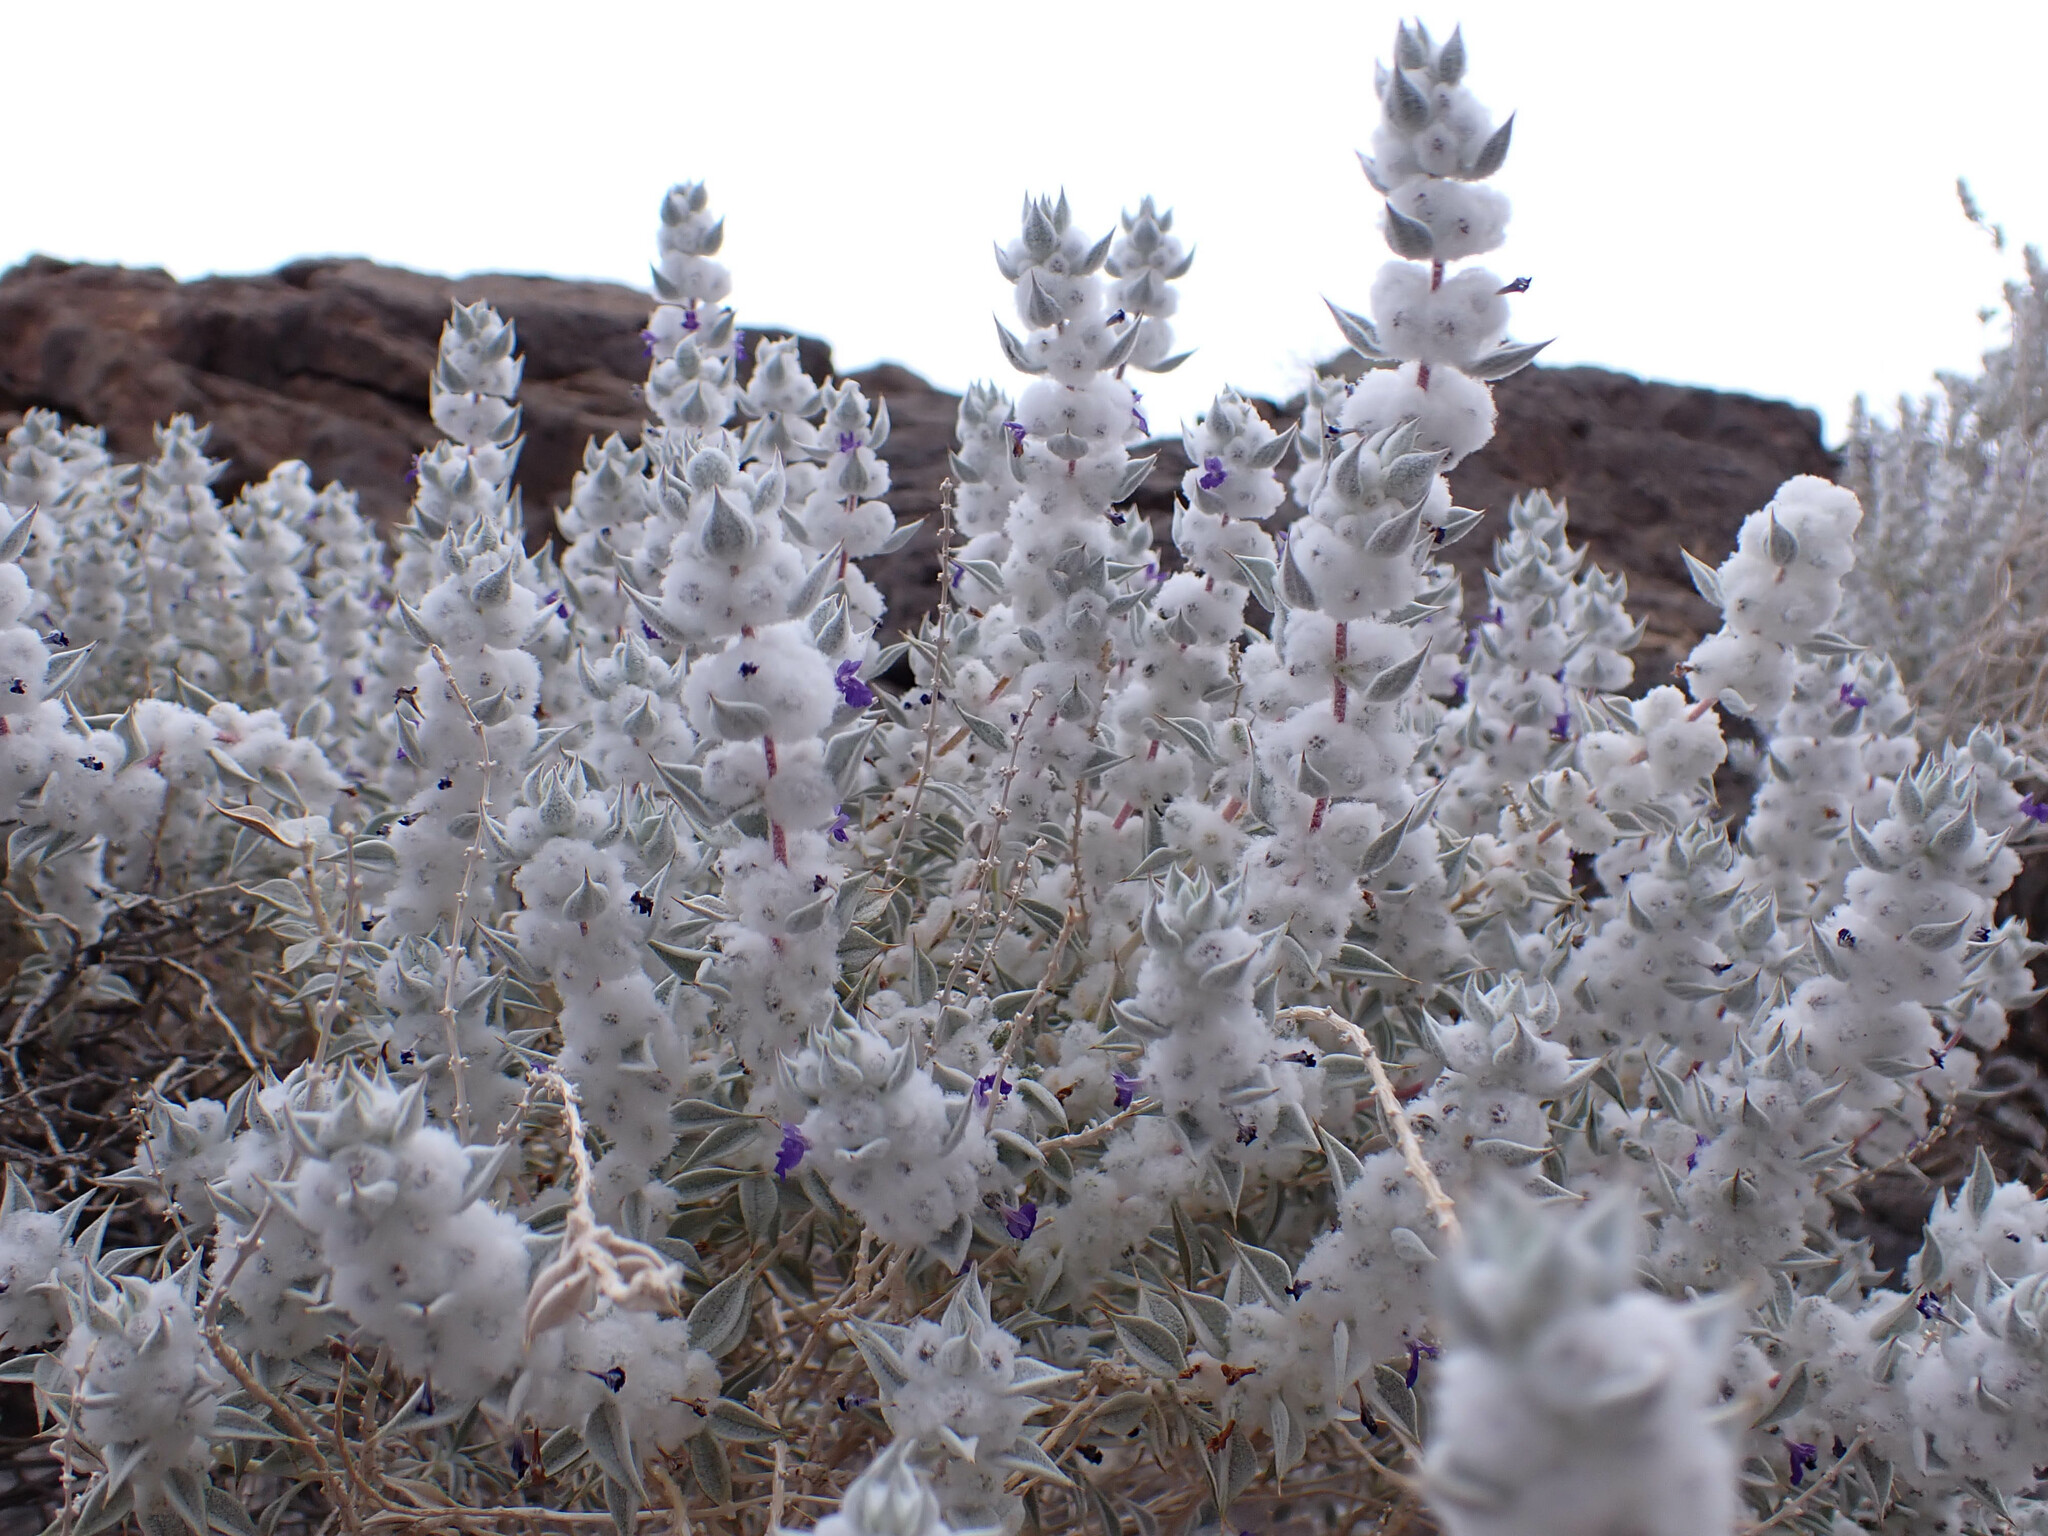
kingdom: Plantae
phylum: Tracheophyta
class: Magnoliopsida
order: Lamiales
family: Lamiaceae
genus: Salvia
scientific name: Salvia funerea
